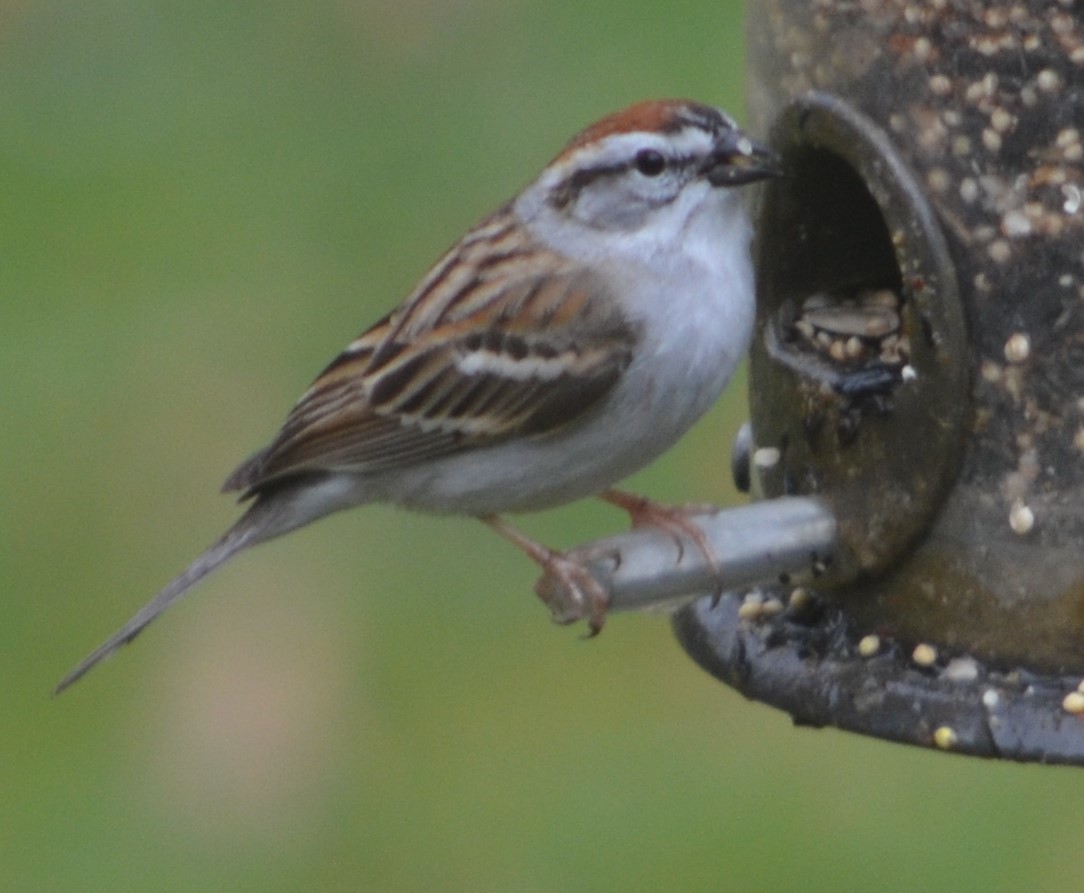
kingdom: Animalia
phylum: Chordata
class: Aves
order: Passeriformes
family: Passerellidae
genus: Spizella
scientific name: Spizella passerina
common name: Chipping sparrow
